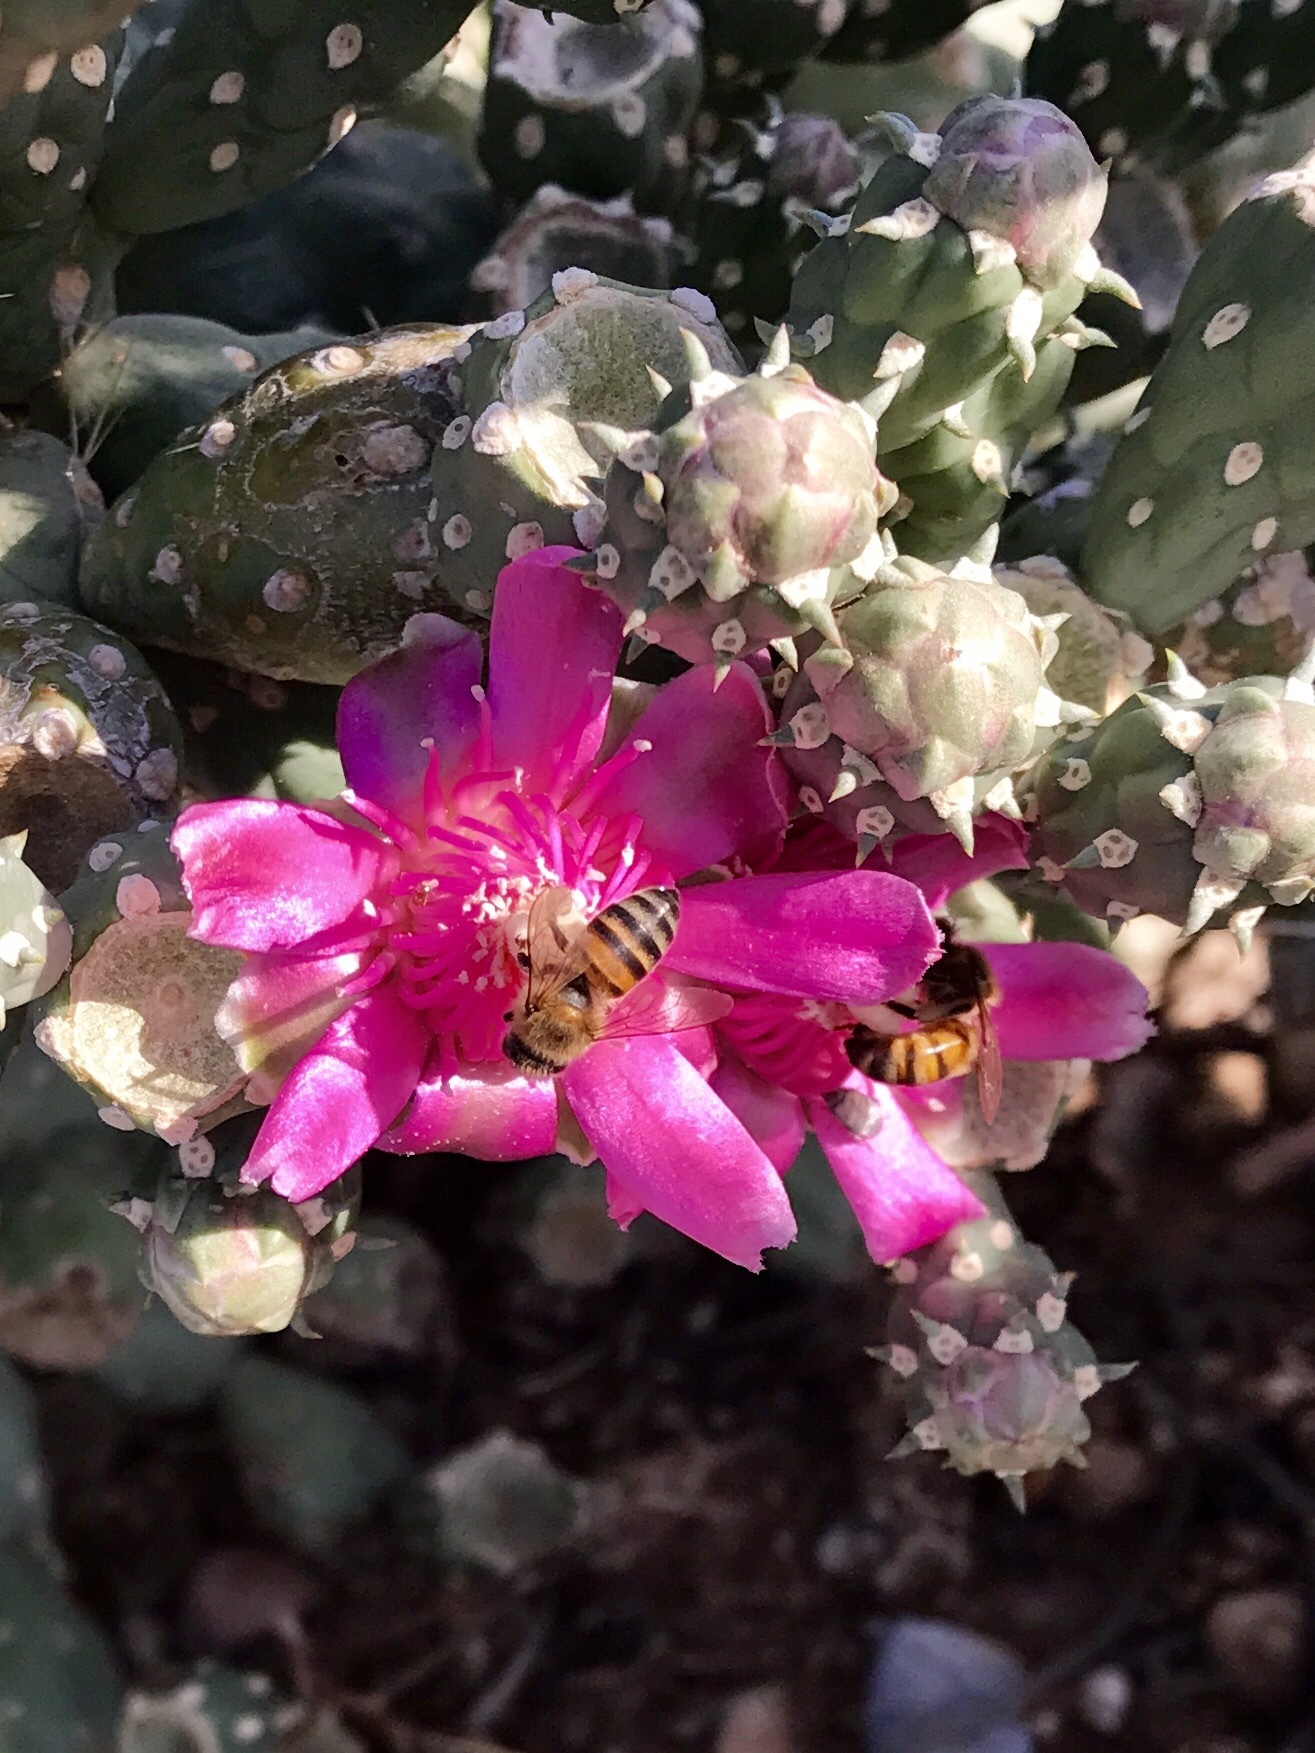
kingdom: Animalia
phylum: Arthropoda
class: Insecta
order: Hymenoptera
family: Apidae
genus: Apis
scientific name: Apis mellifera
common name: Honey bee
